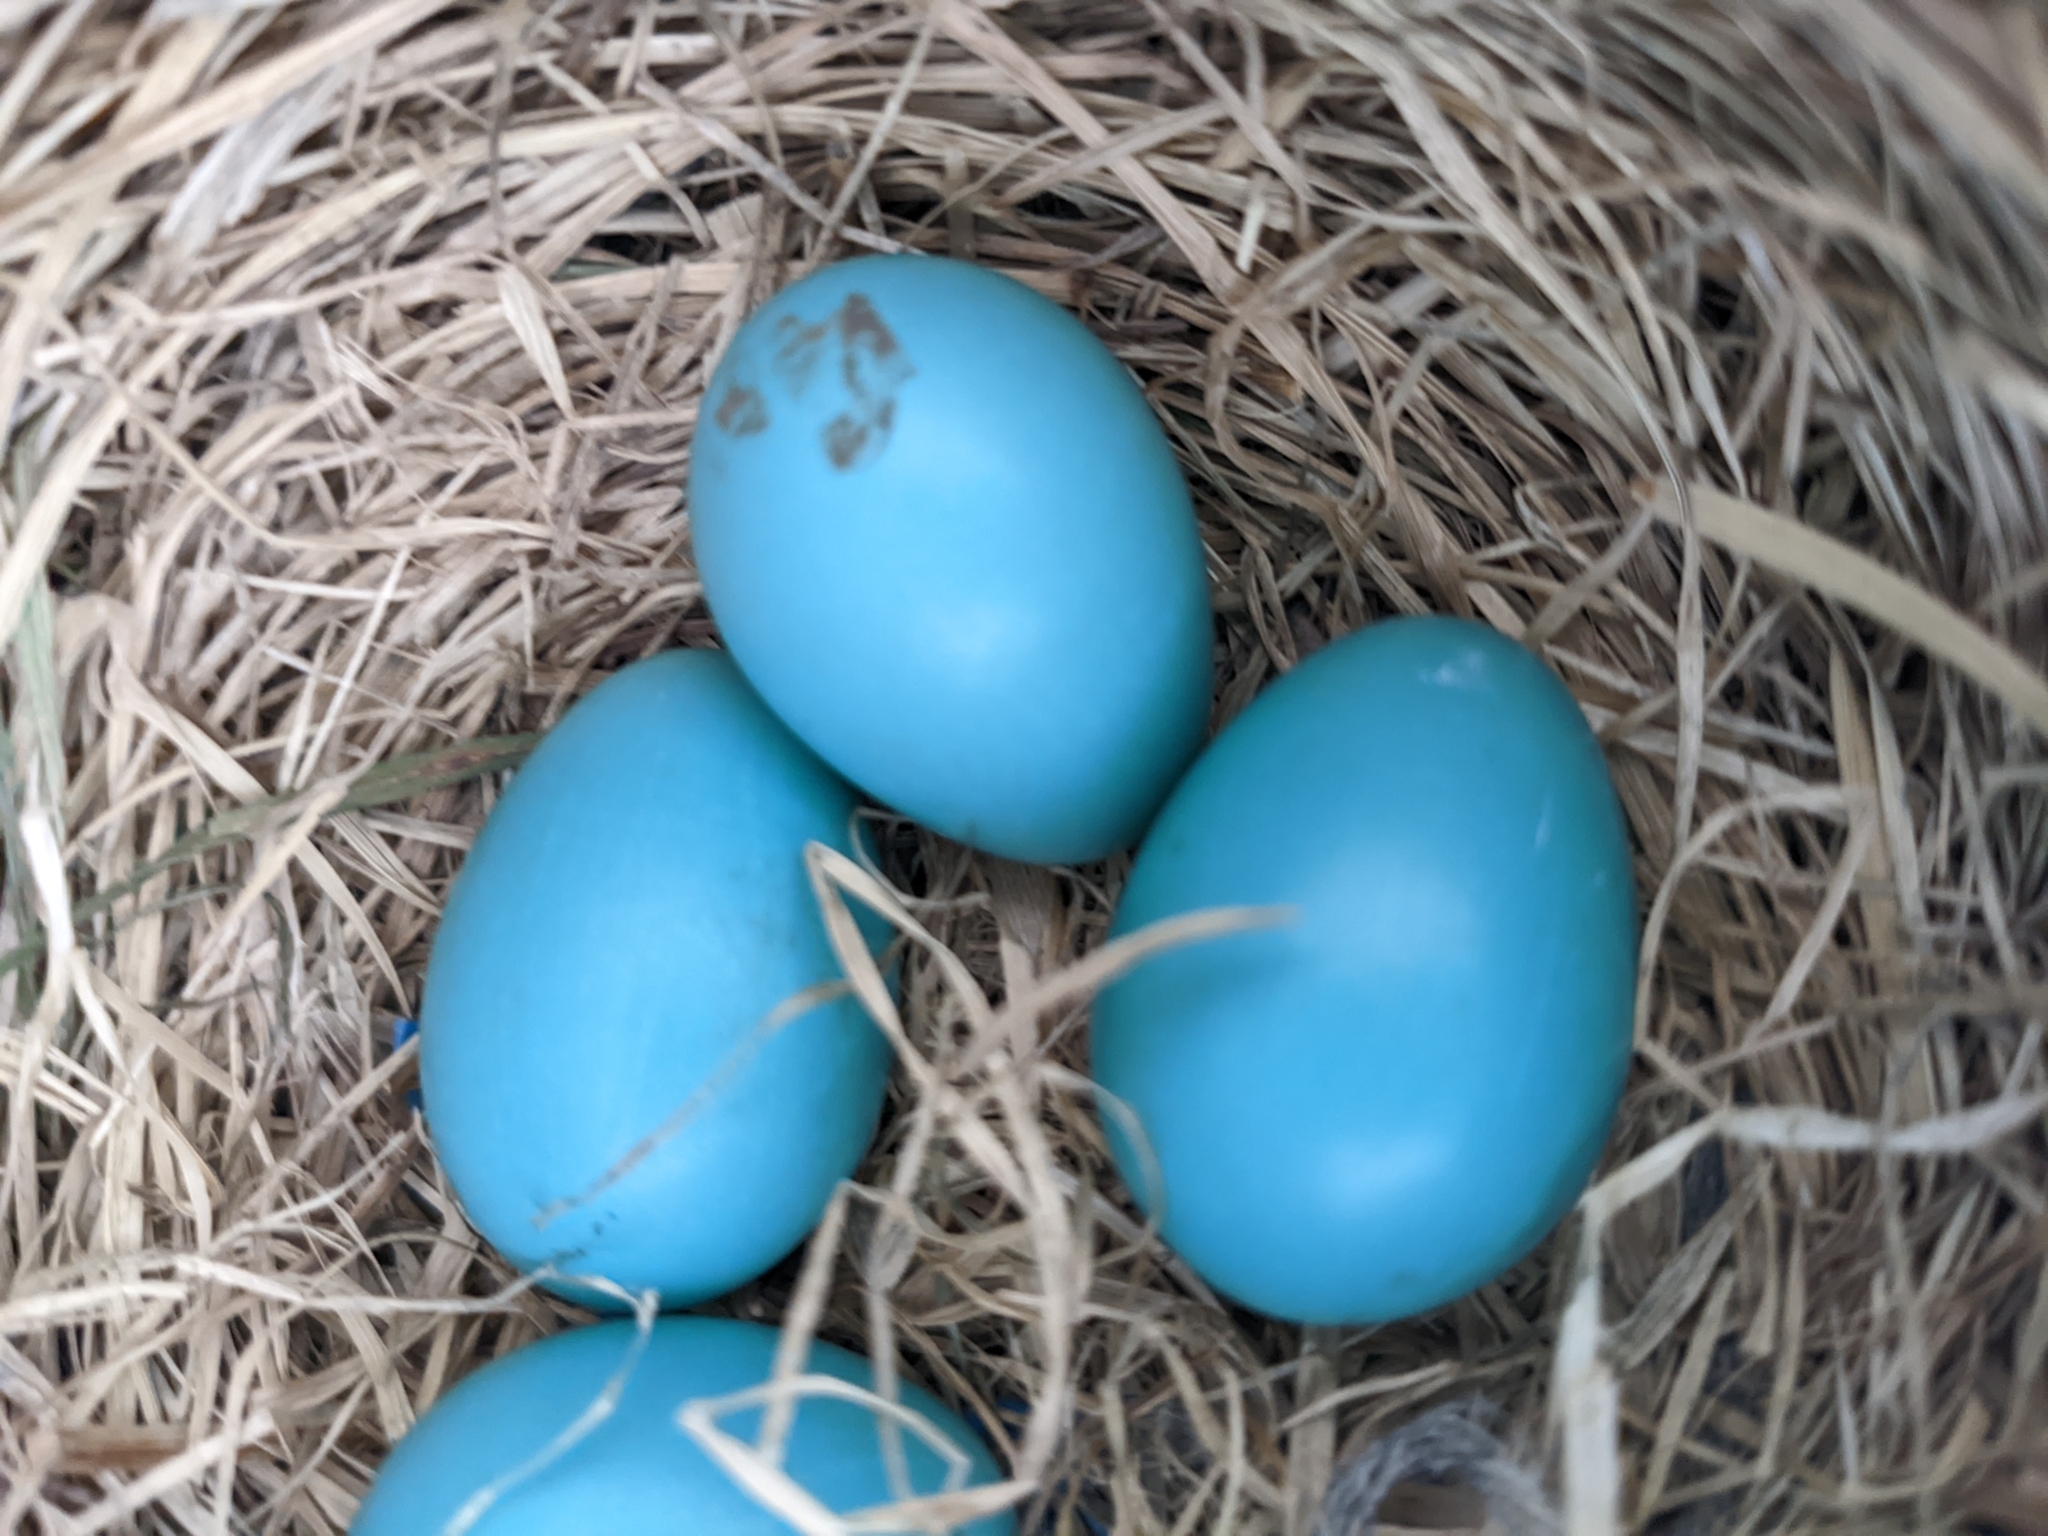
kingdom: Animalia
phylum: Chordata
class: Aves
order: Passeriformes
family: Turdidae
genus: Turdus
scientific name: Turdus migratorius
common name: American robin
